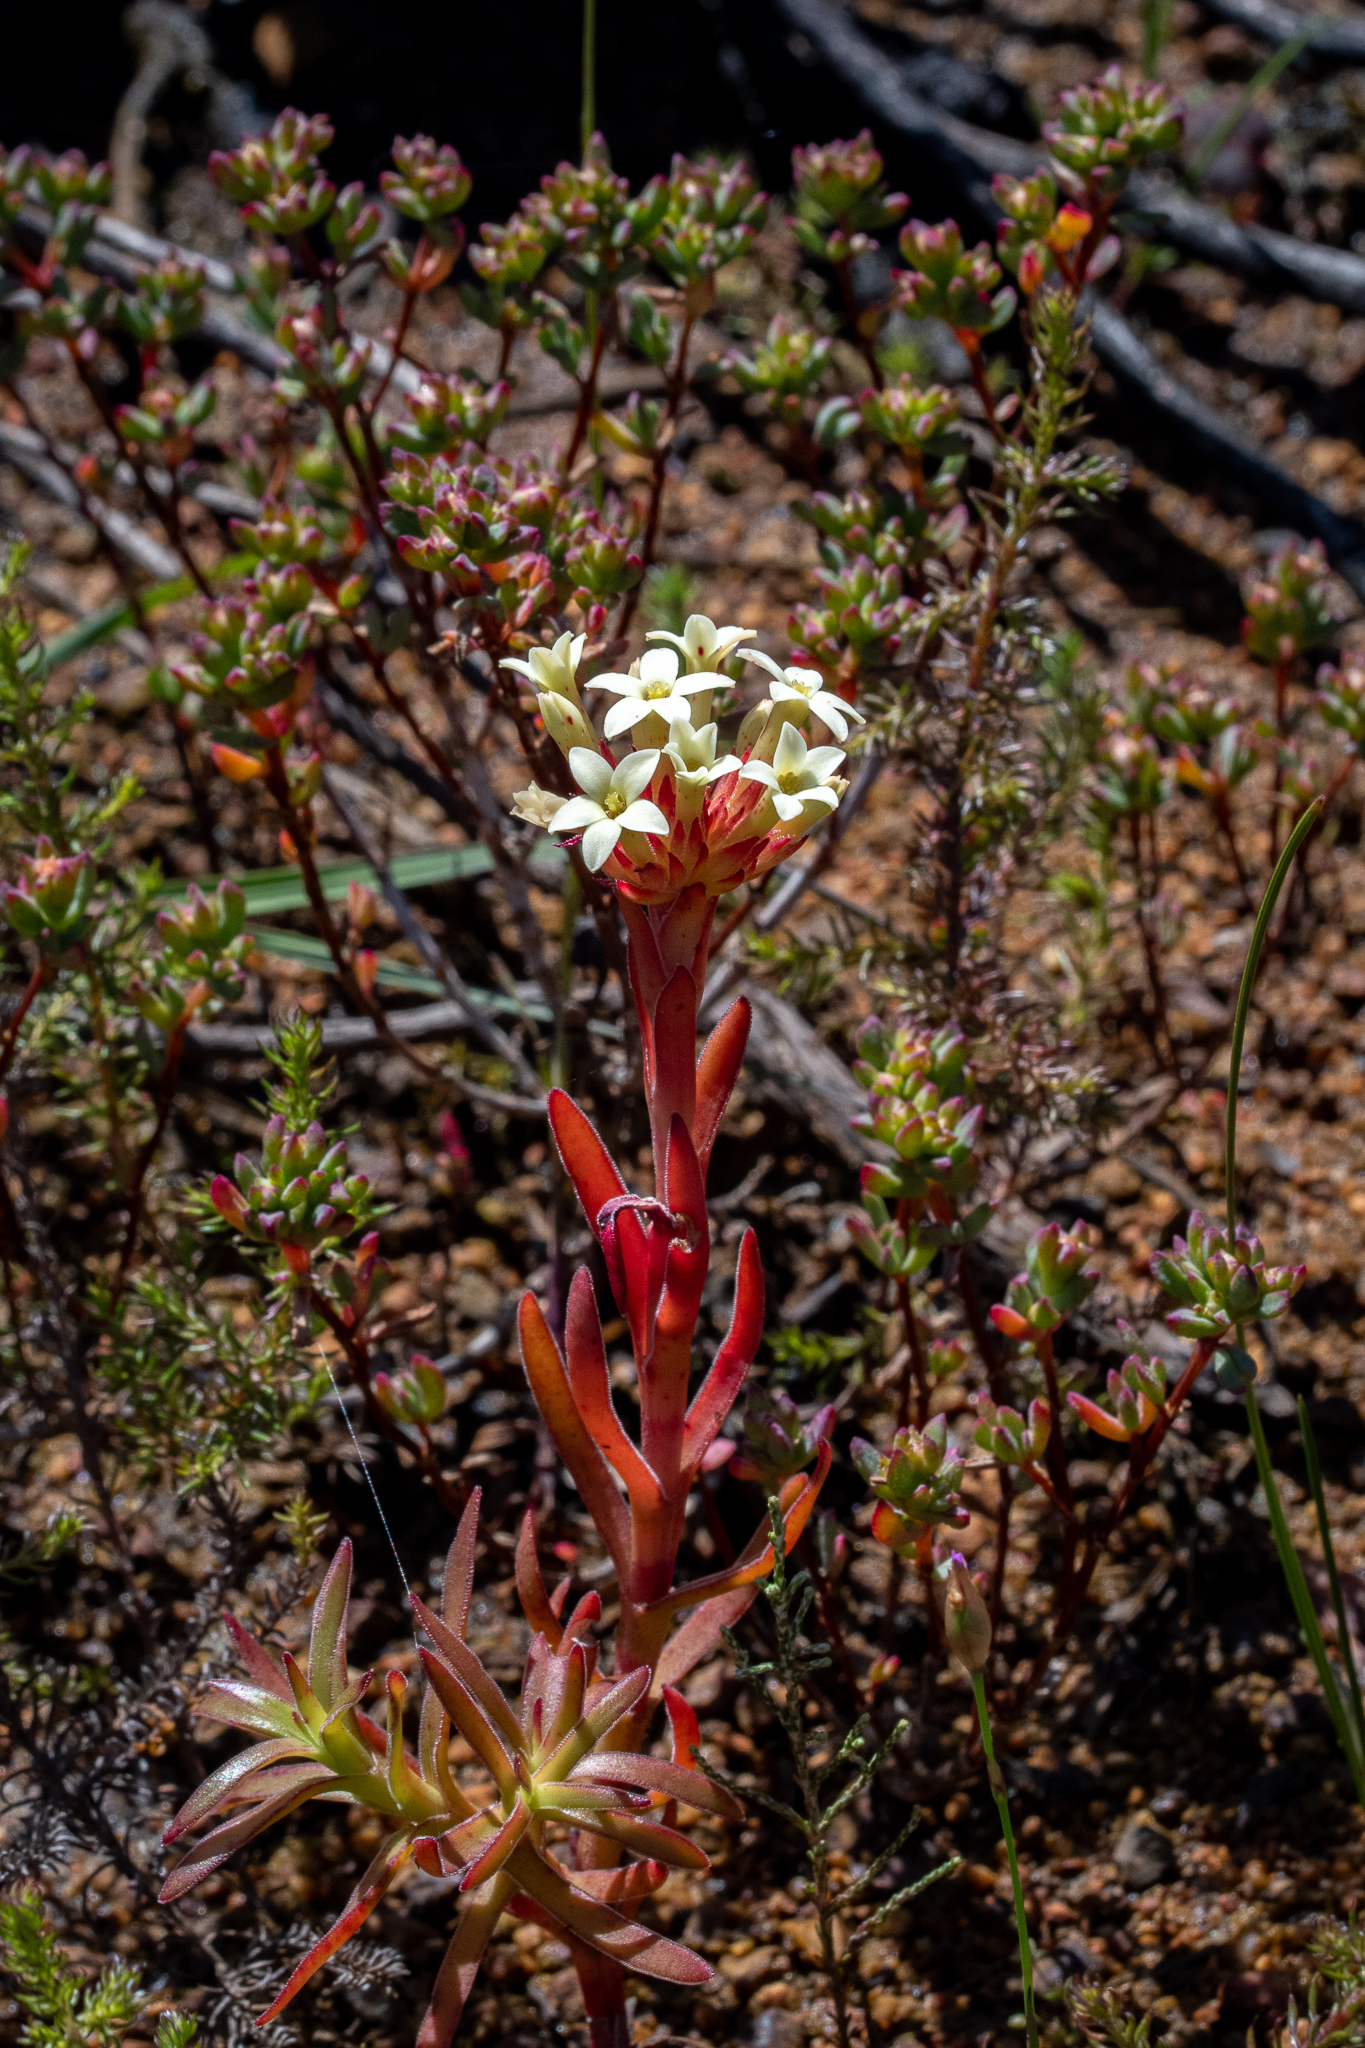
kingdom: Plantae
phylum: Tracheophyta
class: Magnoliopsida
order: Saxifragales
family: Crassulaceae
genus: Crassula
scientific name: Crassula fascicularis
